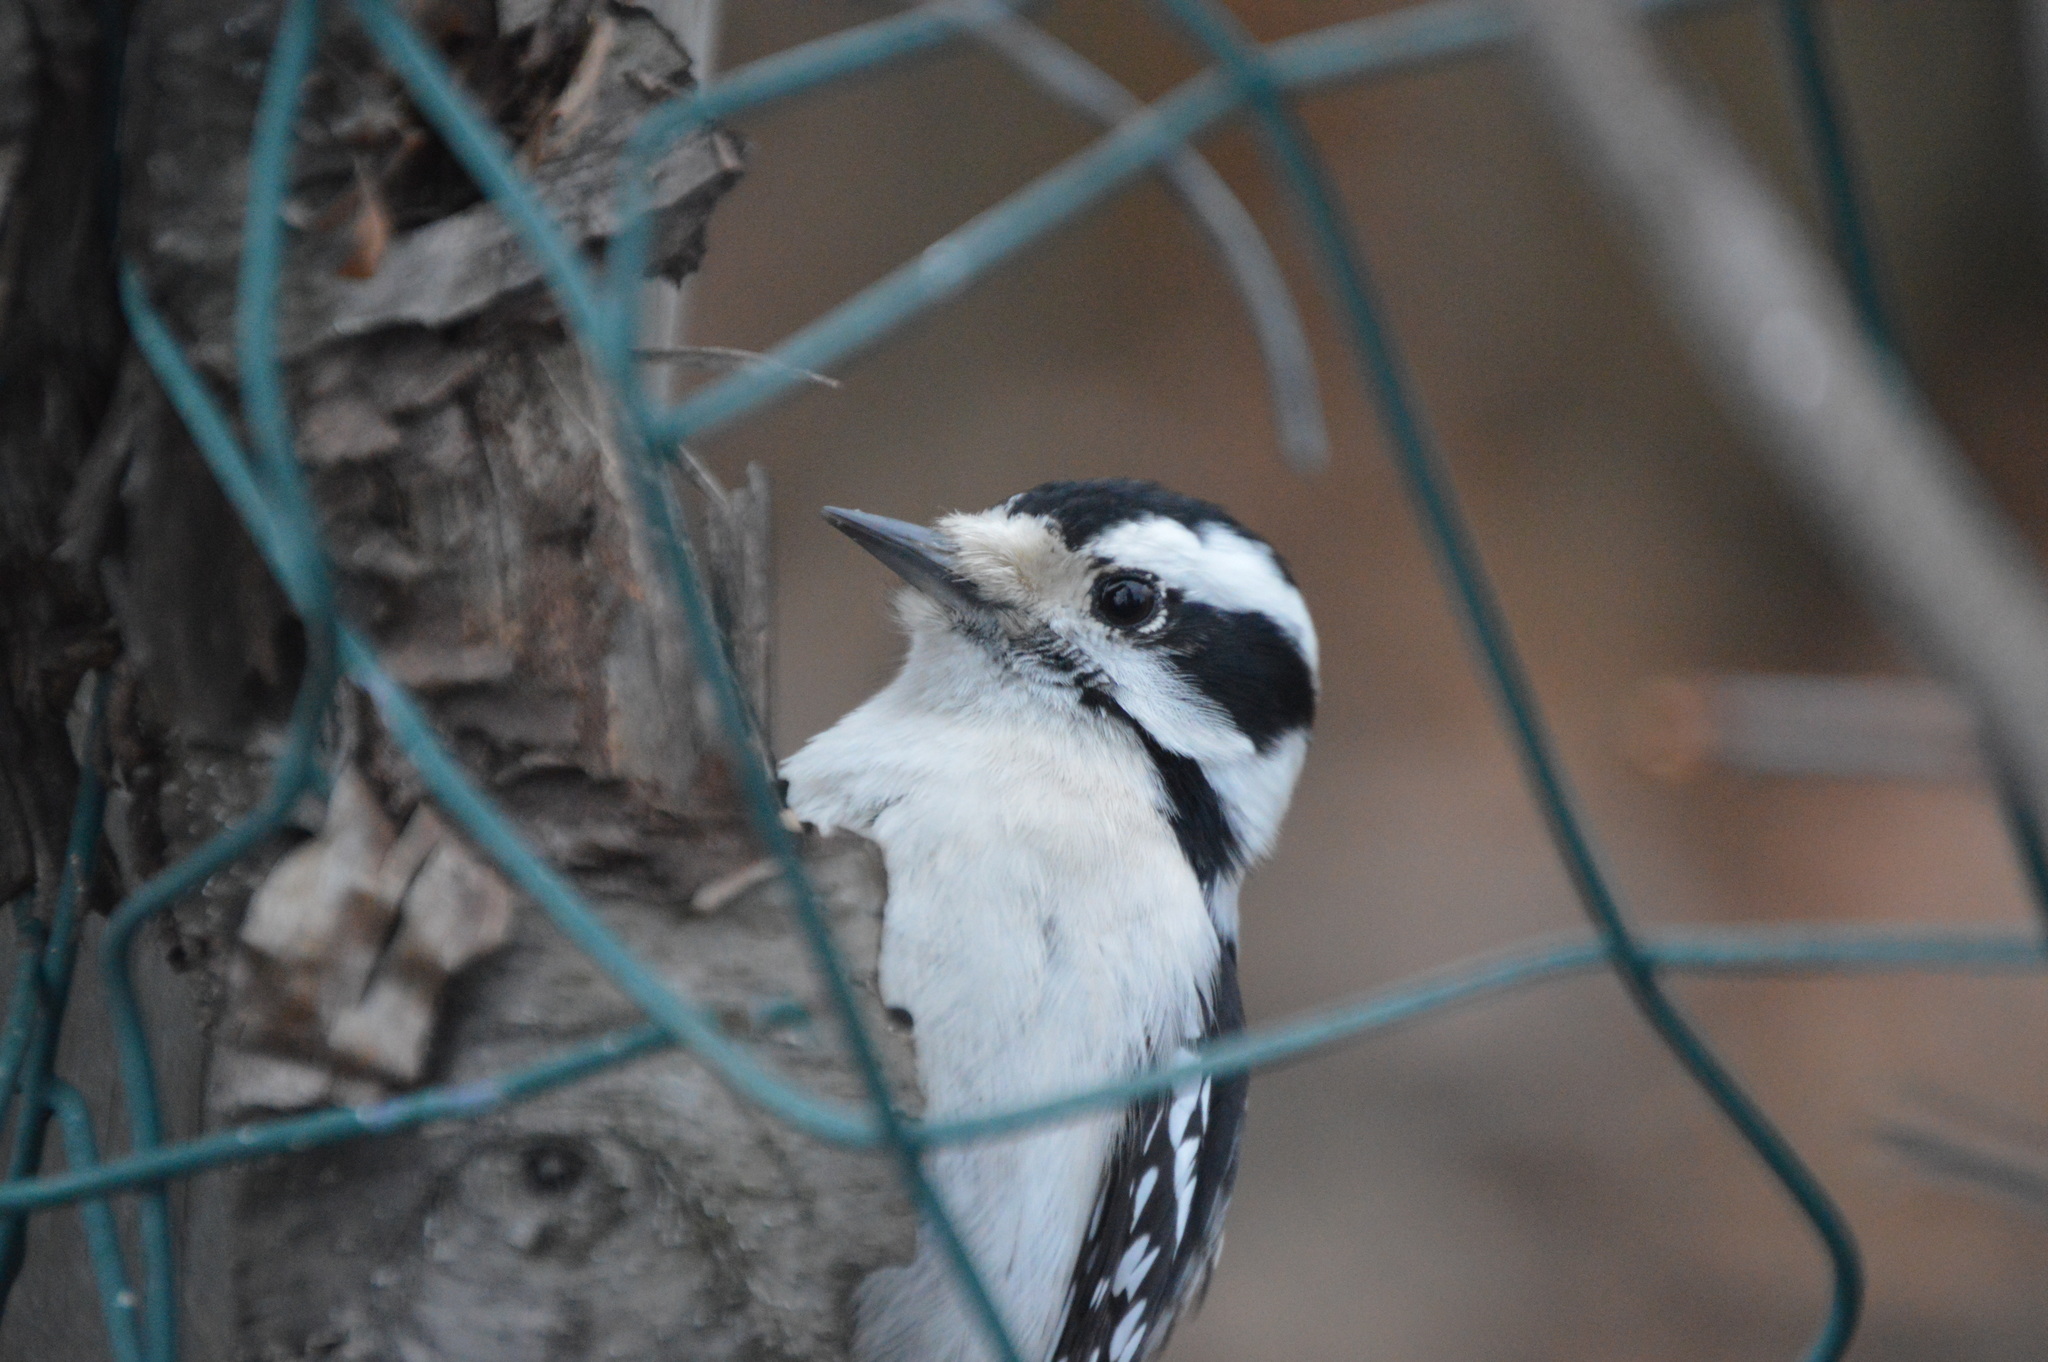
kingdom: Animalia
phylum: Chordata
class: Aves
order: Piciformes
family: Picidae
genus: Dryobates
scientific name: Dryobates pubescens
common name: Downy woodpecker
